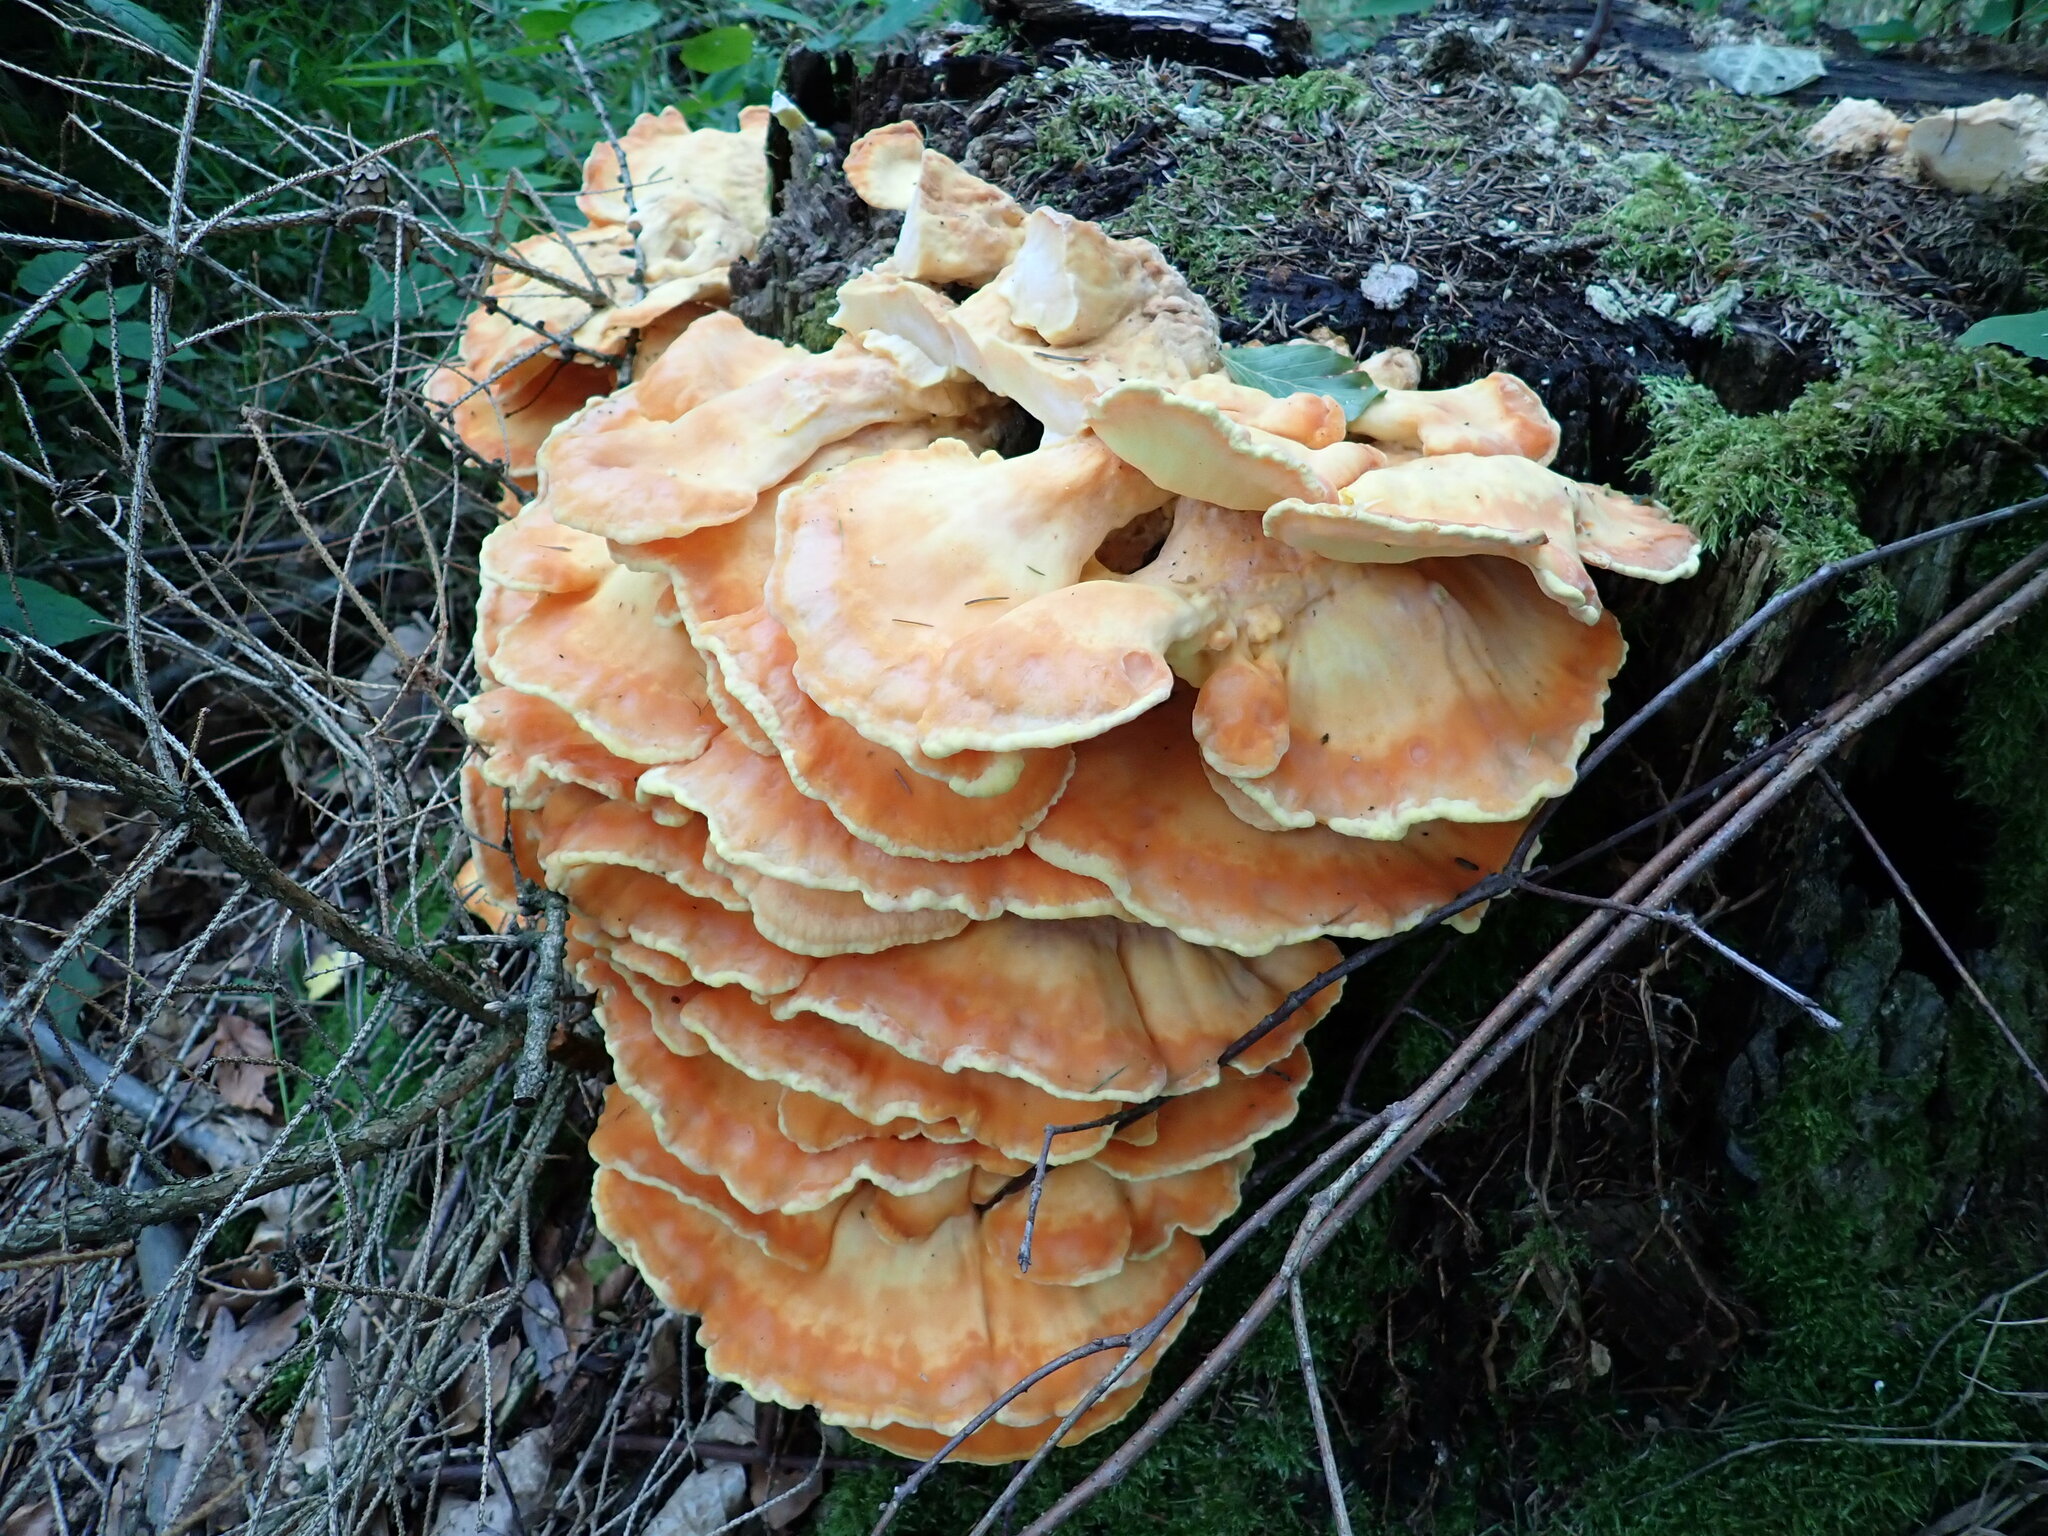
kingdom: Fungi
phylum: Basidiomycota
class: Agaricomycetes
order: Polyporales
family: Laetiporaceae
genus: Laetiporus
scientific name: Laetiporus sulphureus
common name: Chicken of the woods
